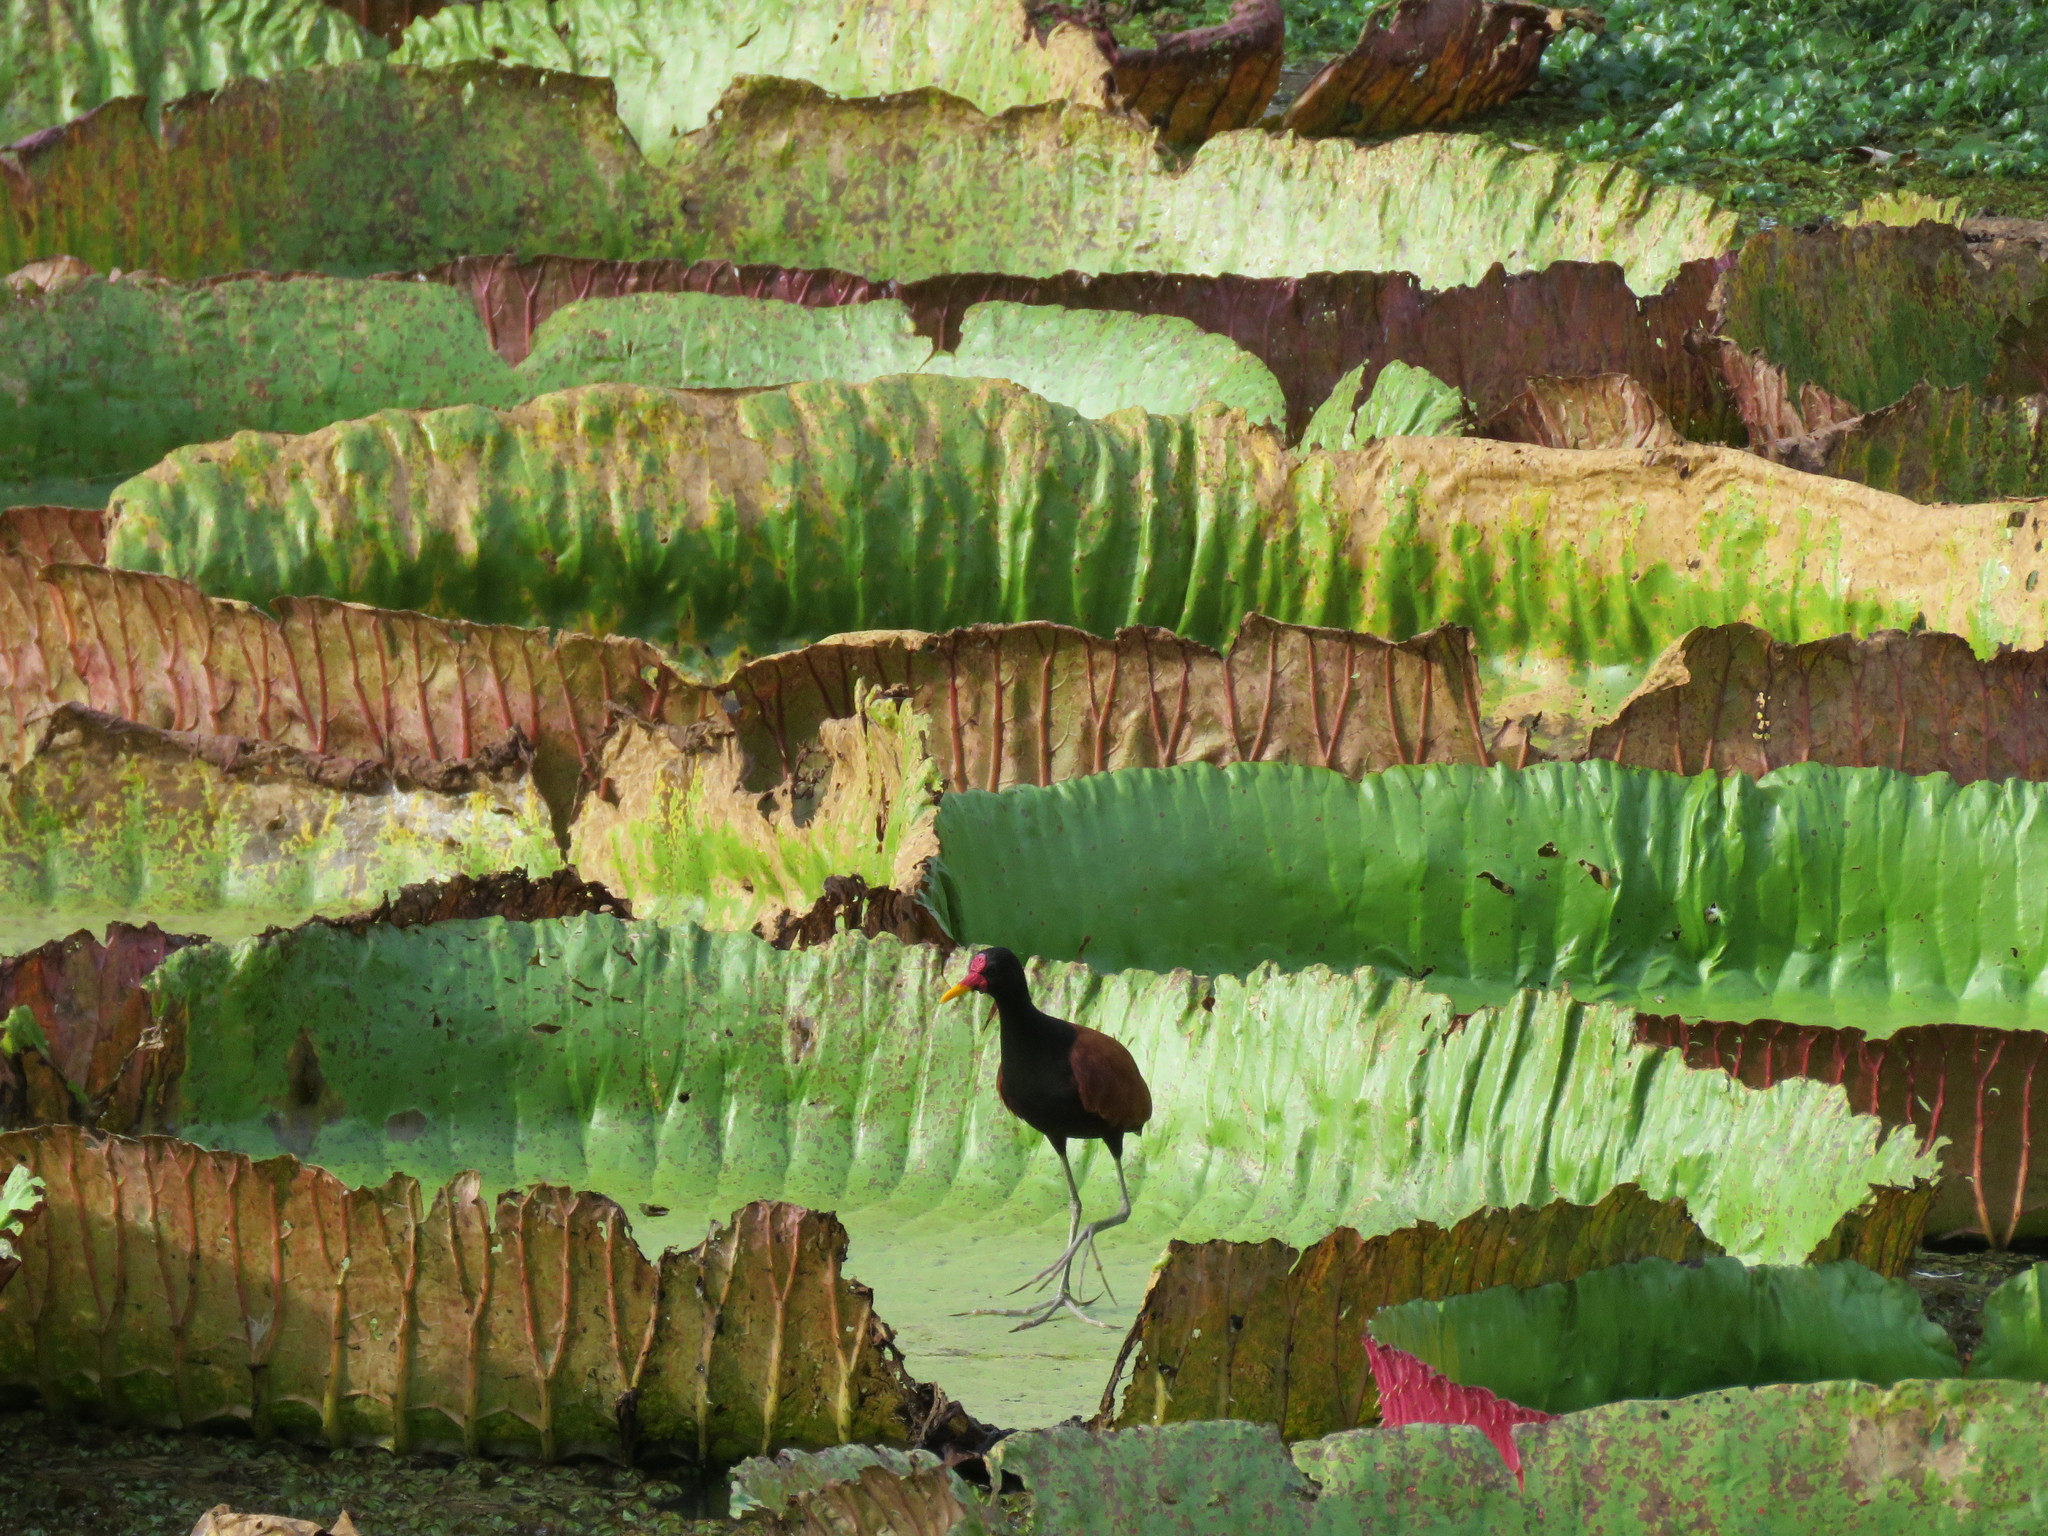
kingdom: Animalia
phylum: Chordata
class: Aves
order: Charadriiformes
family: Jacanidae
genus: Jacana
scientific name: Jacana jacana
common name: Wattled jacana
